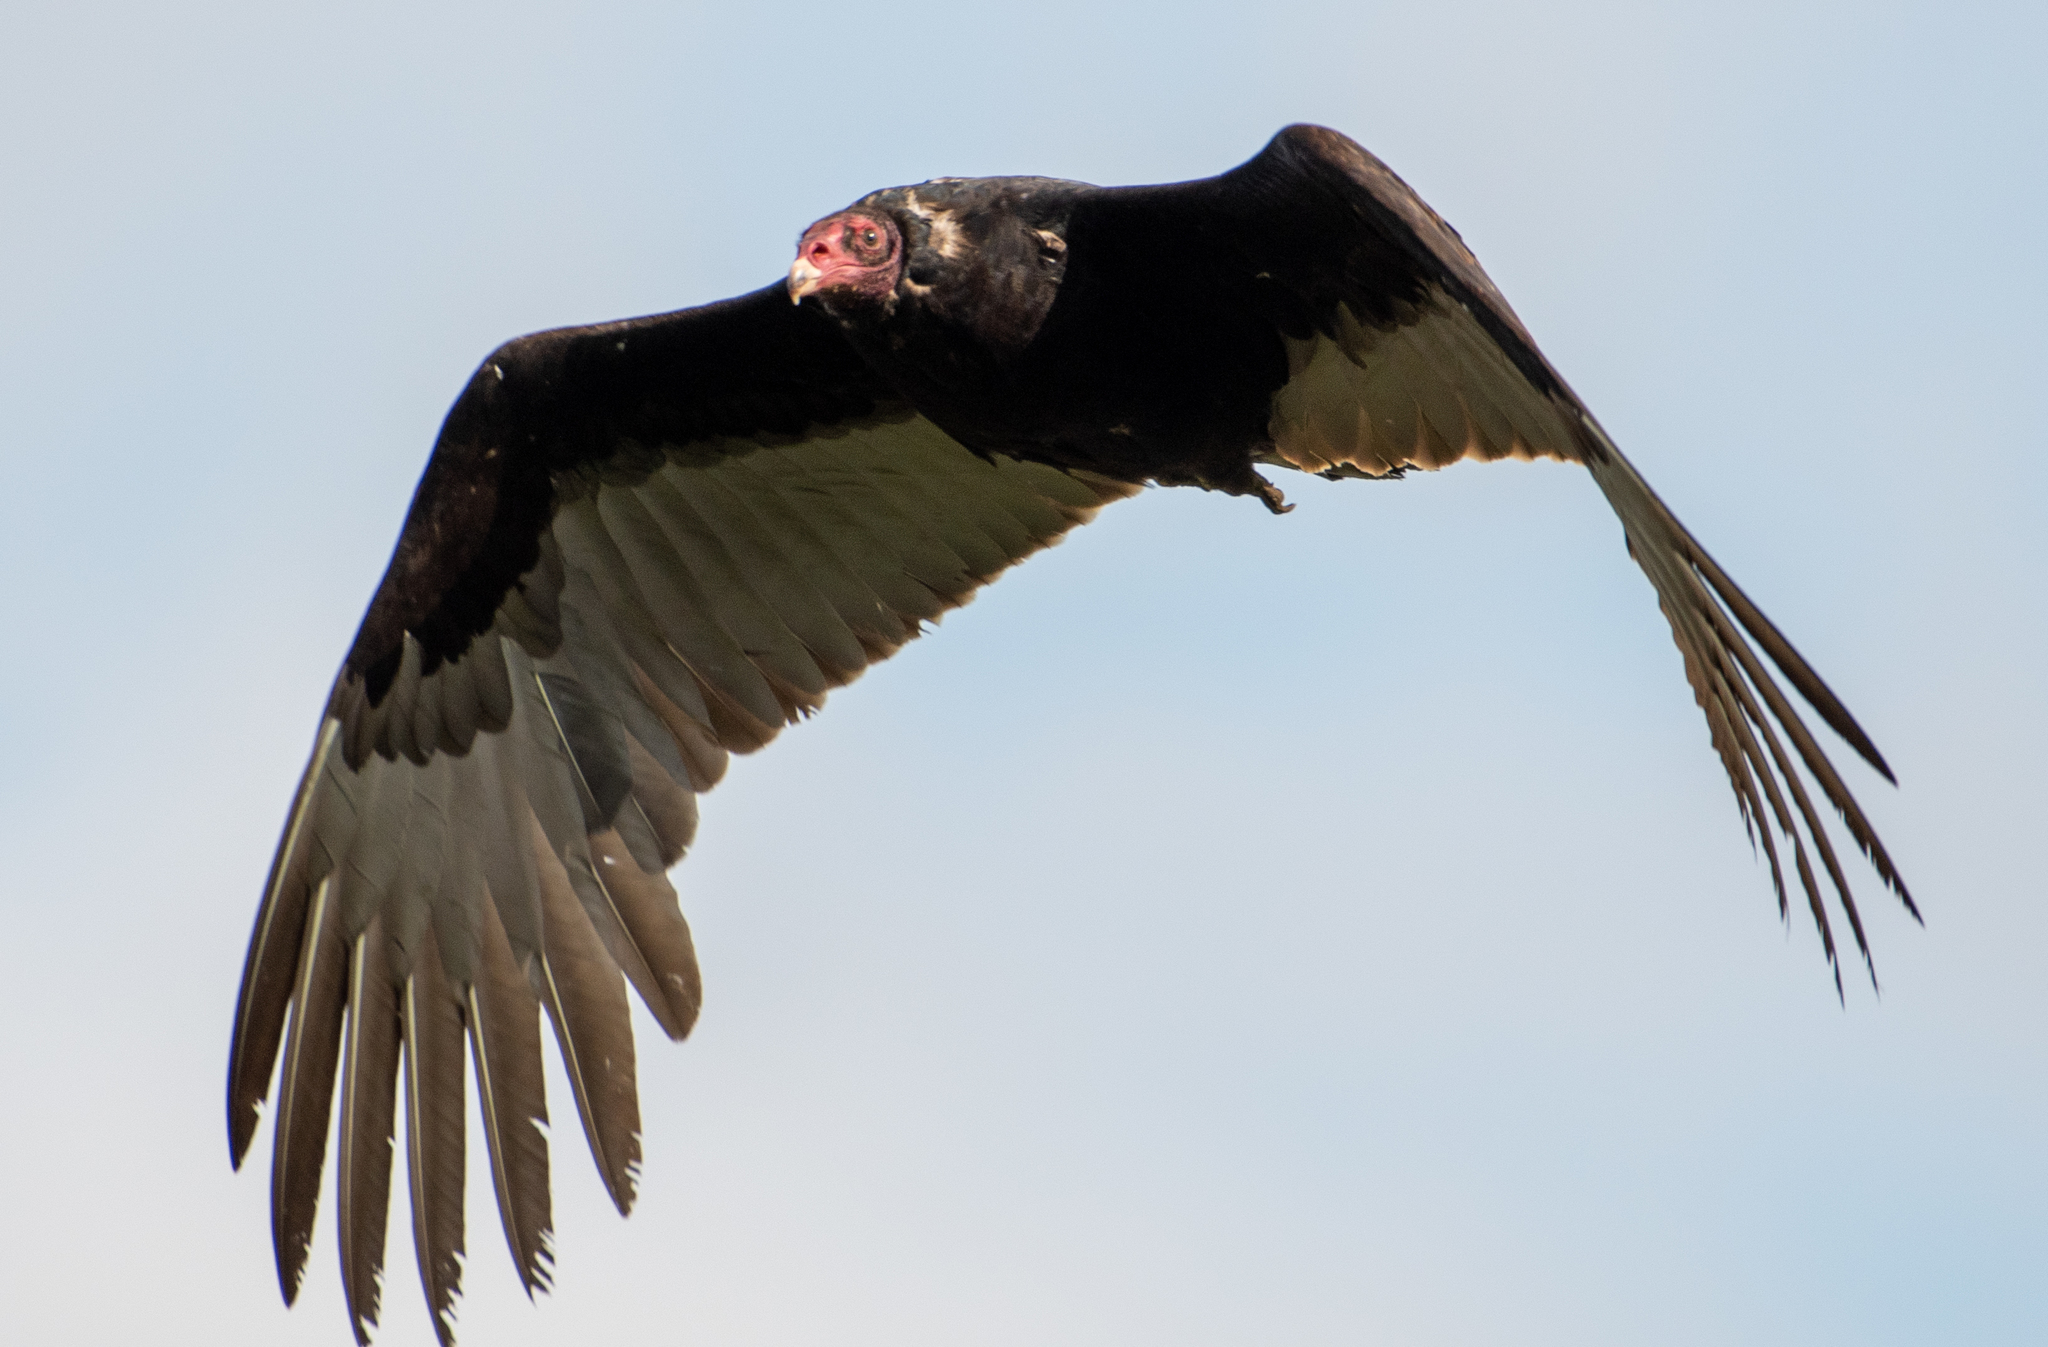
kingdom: Animalia
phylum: Chordata
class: Aves
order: Accipitriformes
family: Cathartidae
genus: Cathartes
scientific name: Cathartes aura
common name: Turkey vulture
